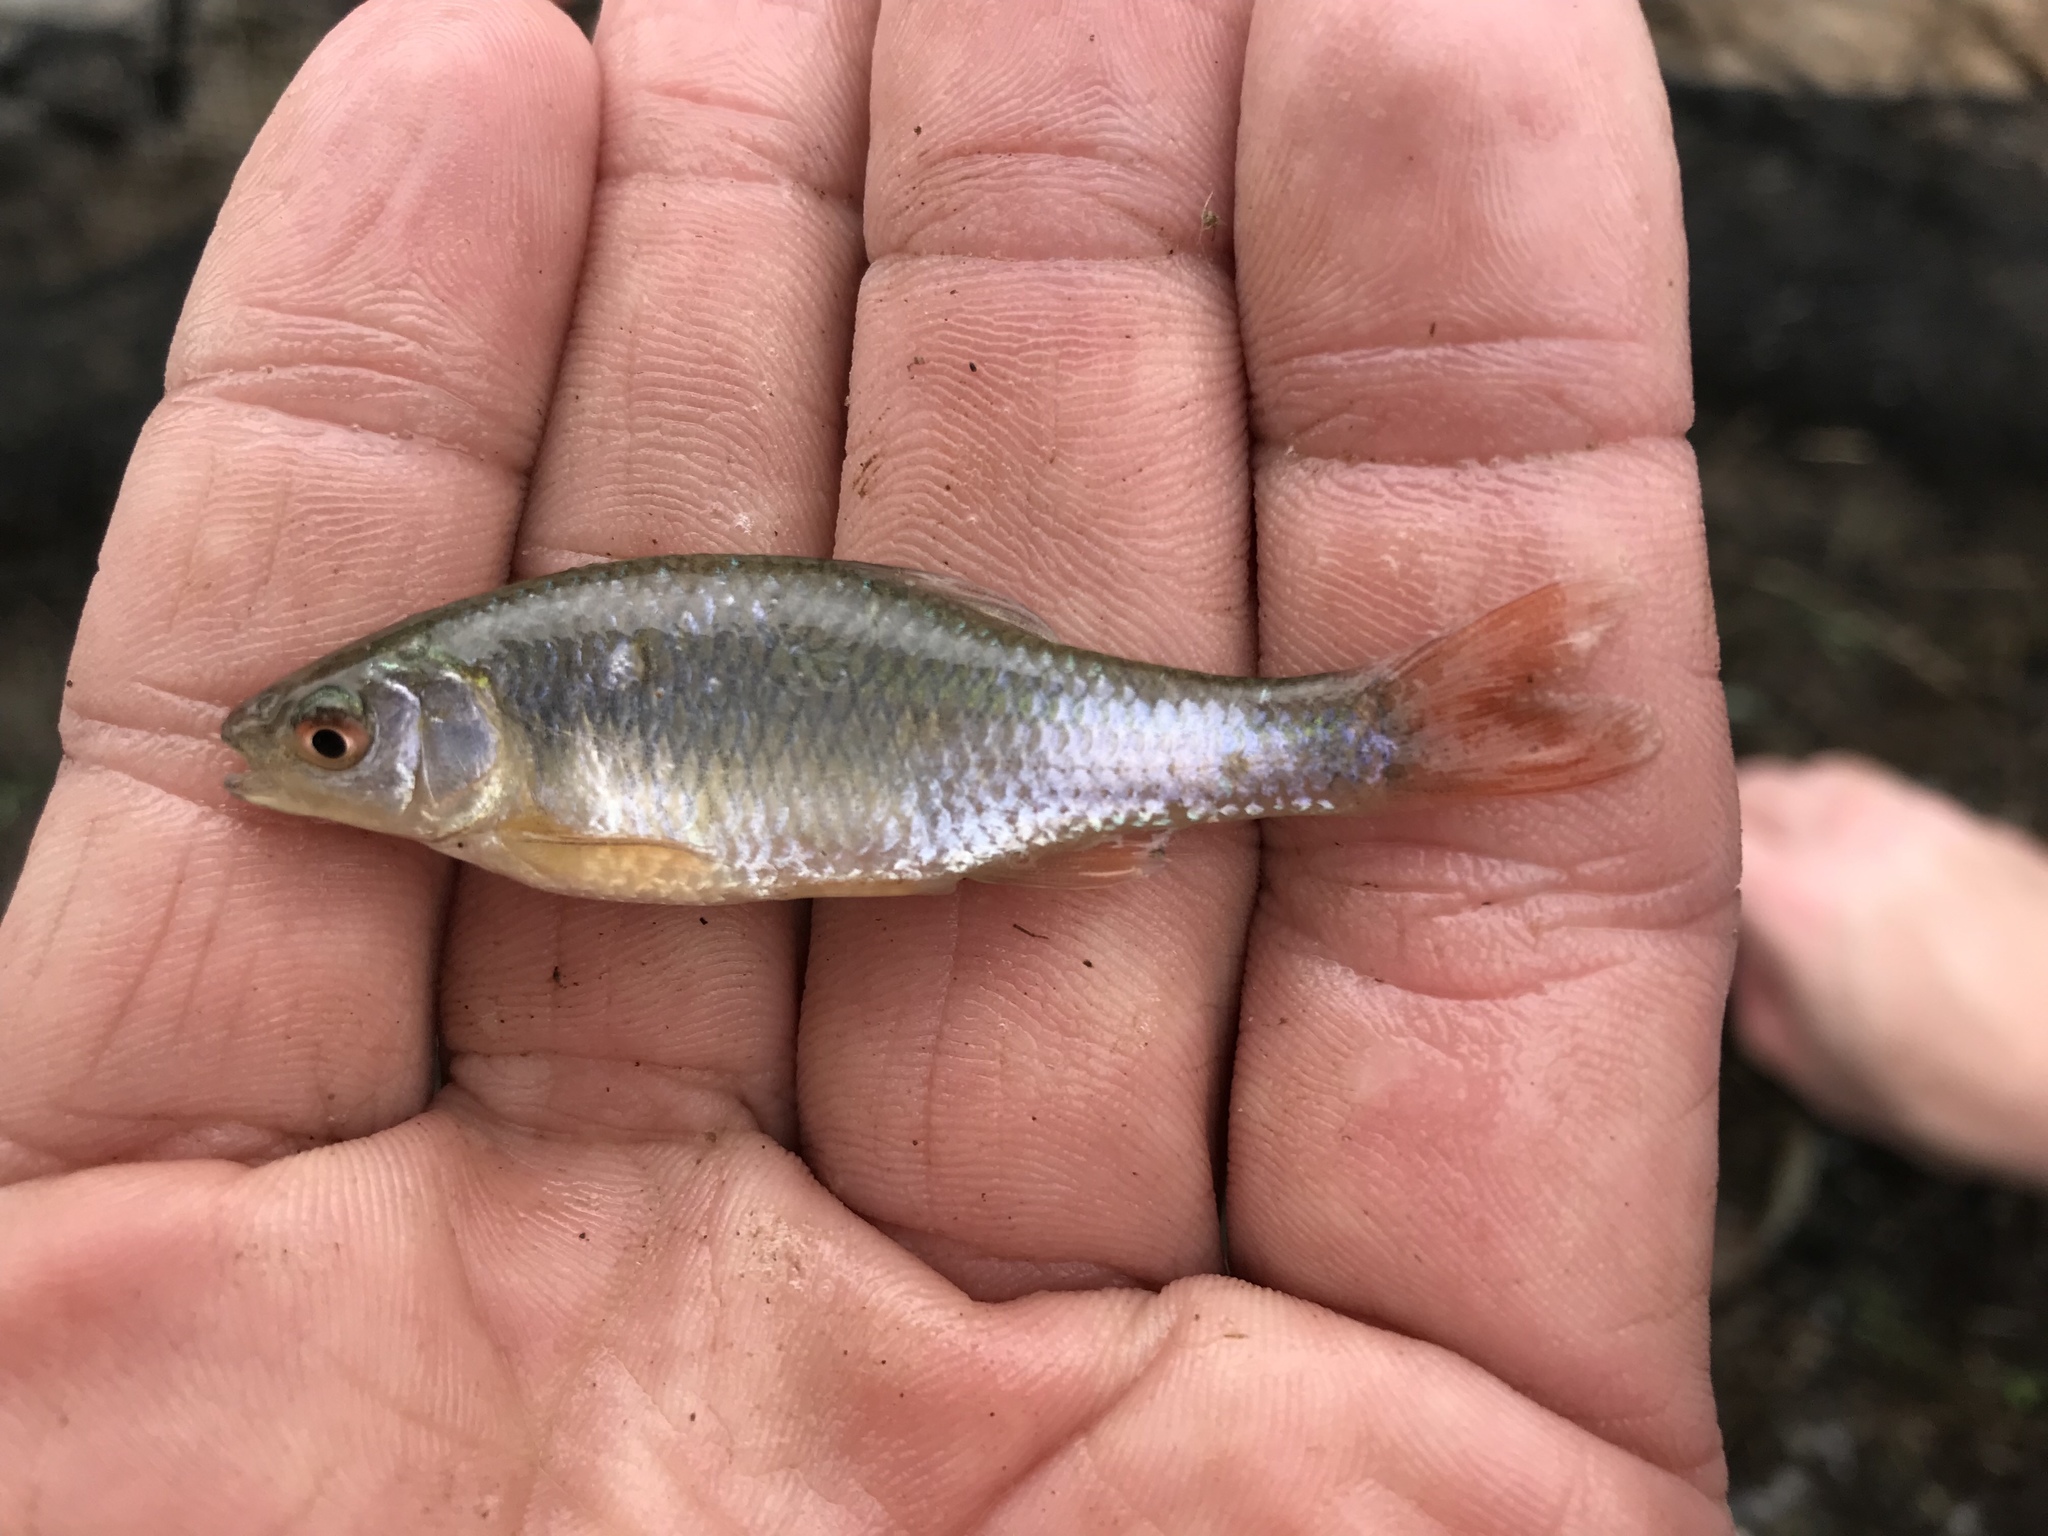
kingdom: Animalia
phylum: Chordata
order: Cypriniformes
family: Cyprinidae
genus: Cyprinella
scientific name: Cyprinella lutrensis
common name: Red shiner
